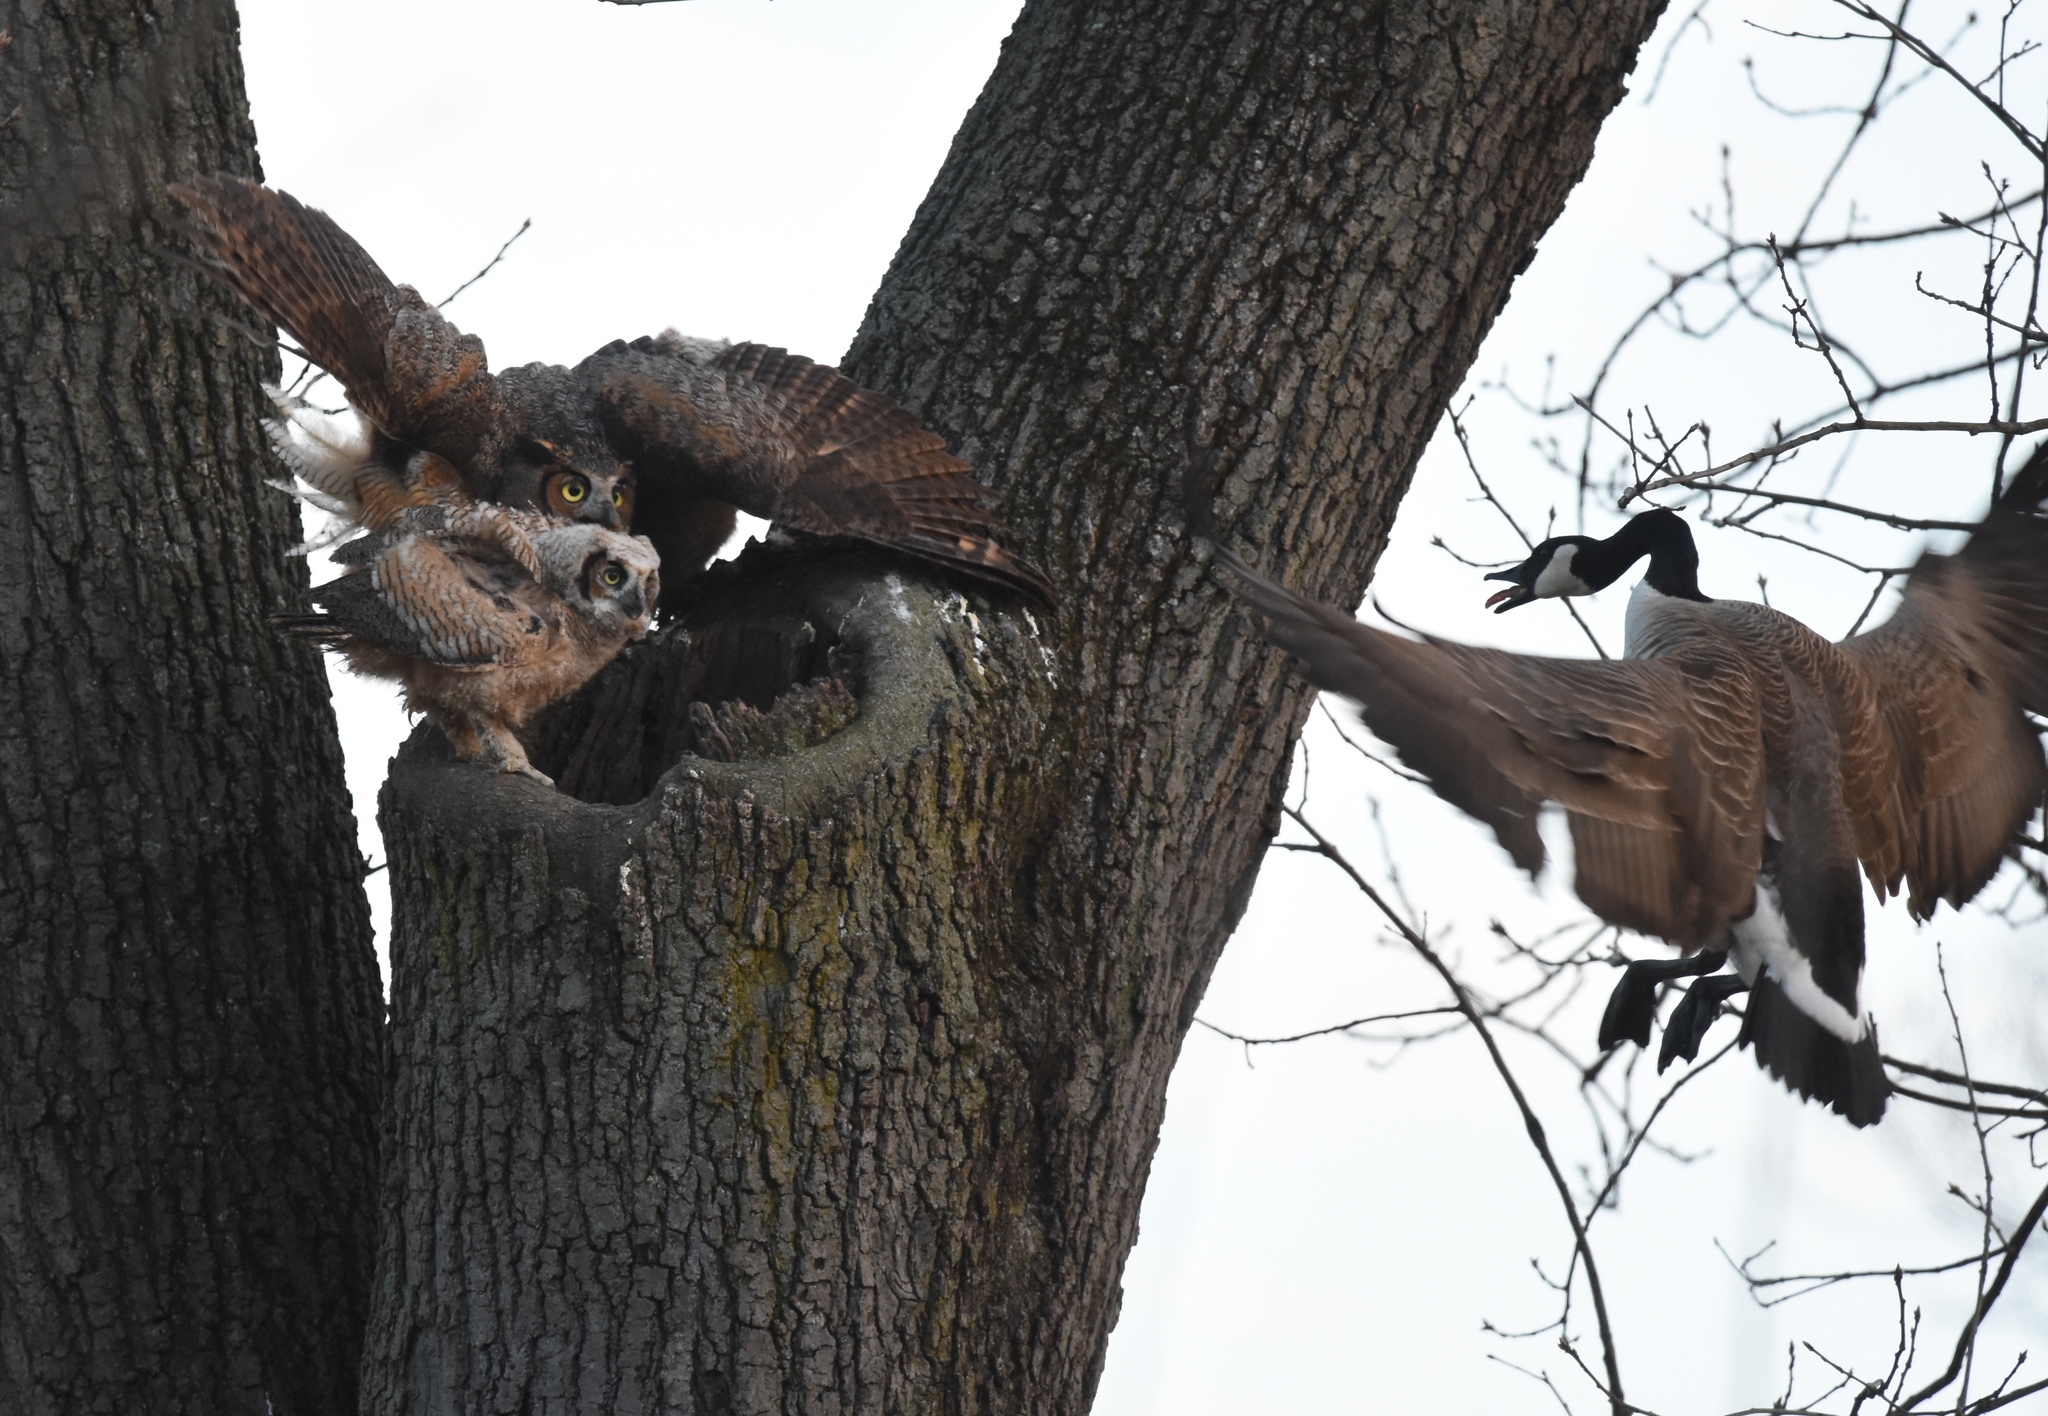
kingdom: Animalia
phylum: Chordata
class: Aves
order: Strigiformes
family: Strigidae
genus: Bubo
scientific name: Bubo virginianus
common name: Great horned owl
